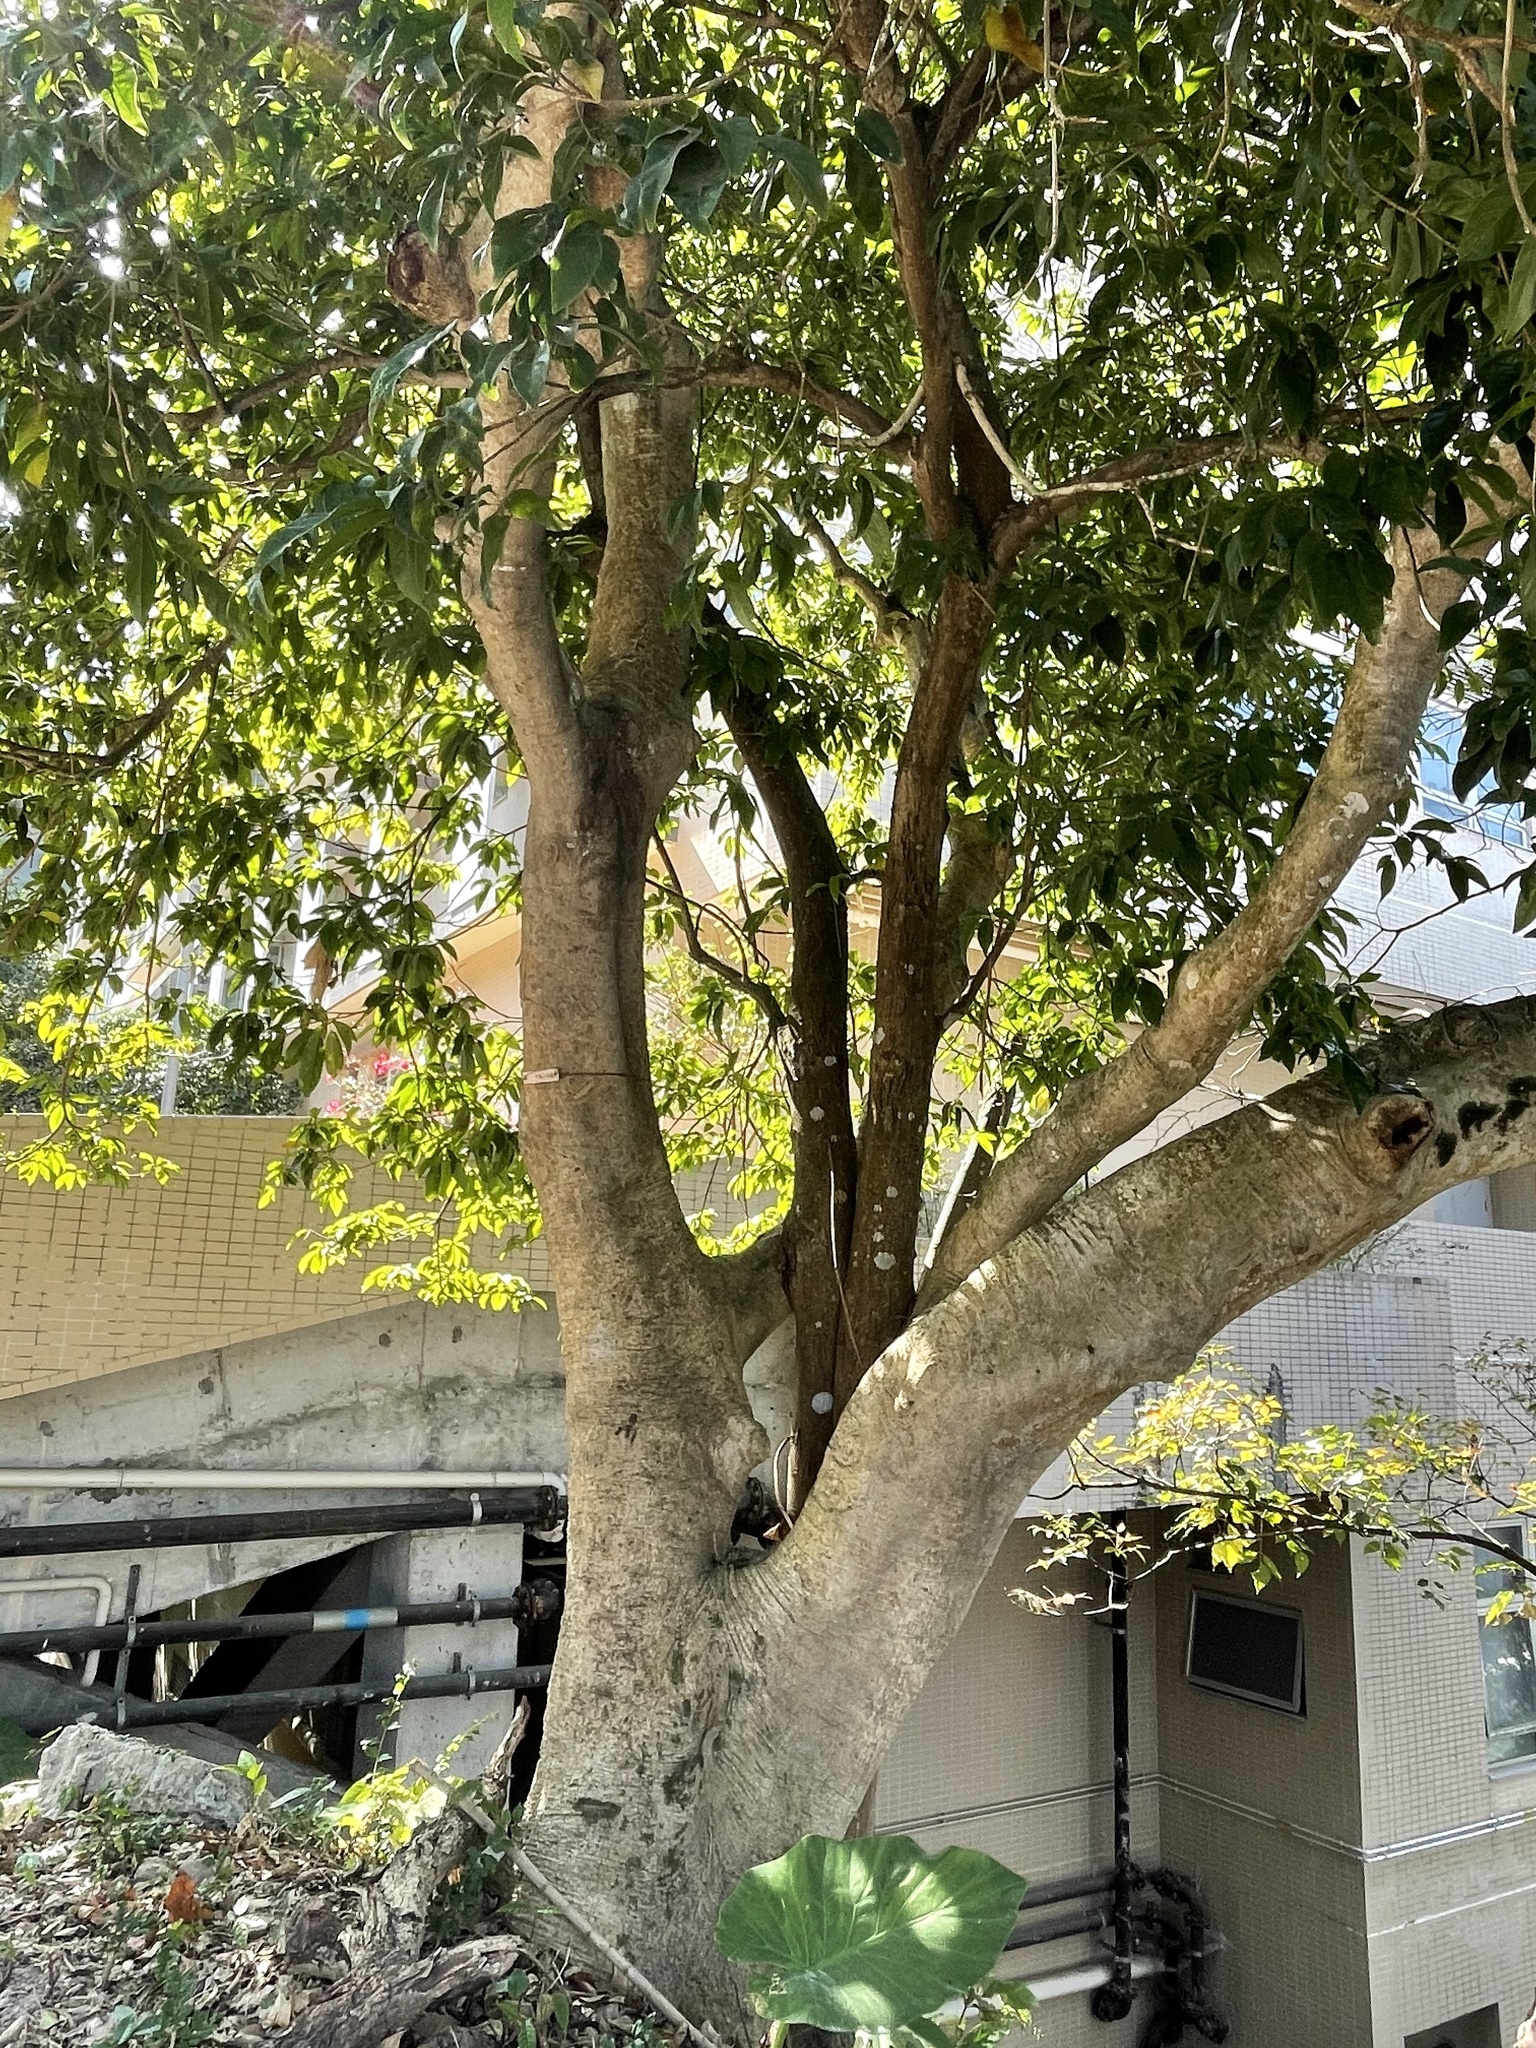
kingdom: Plantae
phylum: Tracheophyta
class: Magnoliopsida
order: Aquifoliales
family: Aquifoliaceae
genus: Ilex
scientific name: Ilex rotunda
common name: Kurogane holly
